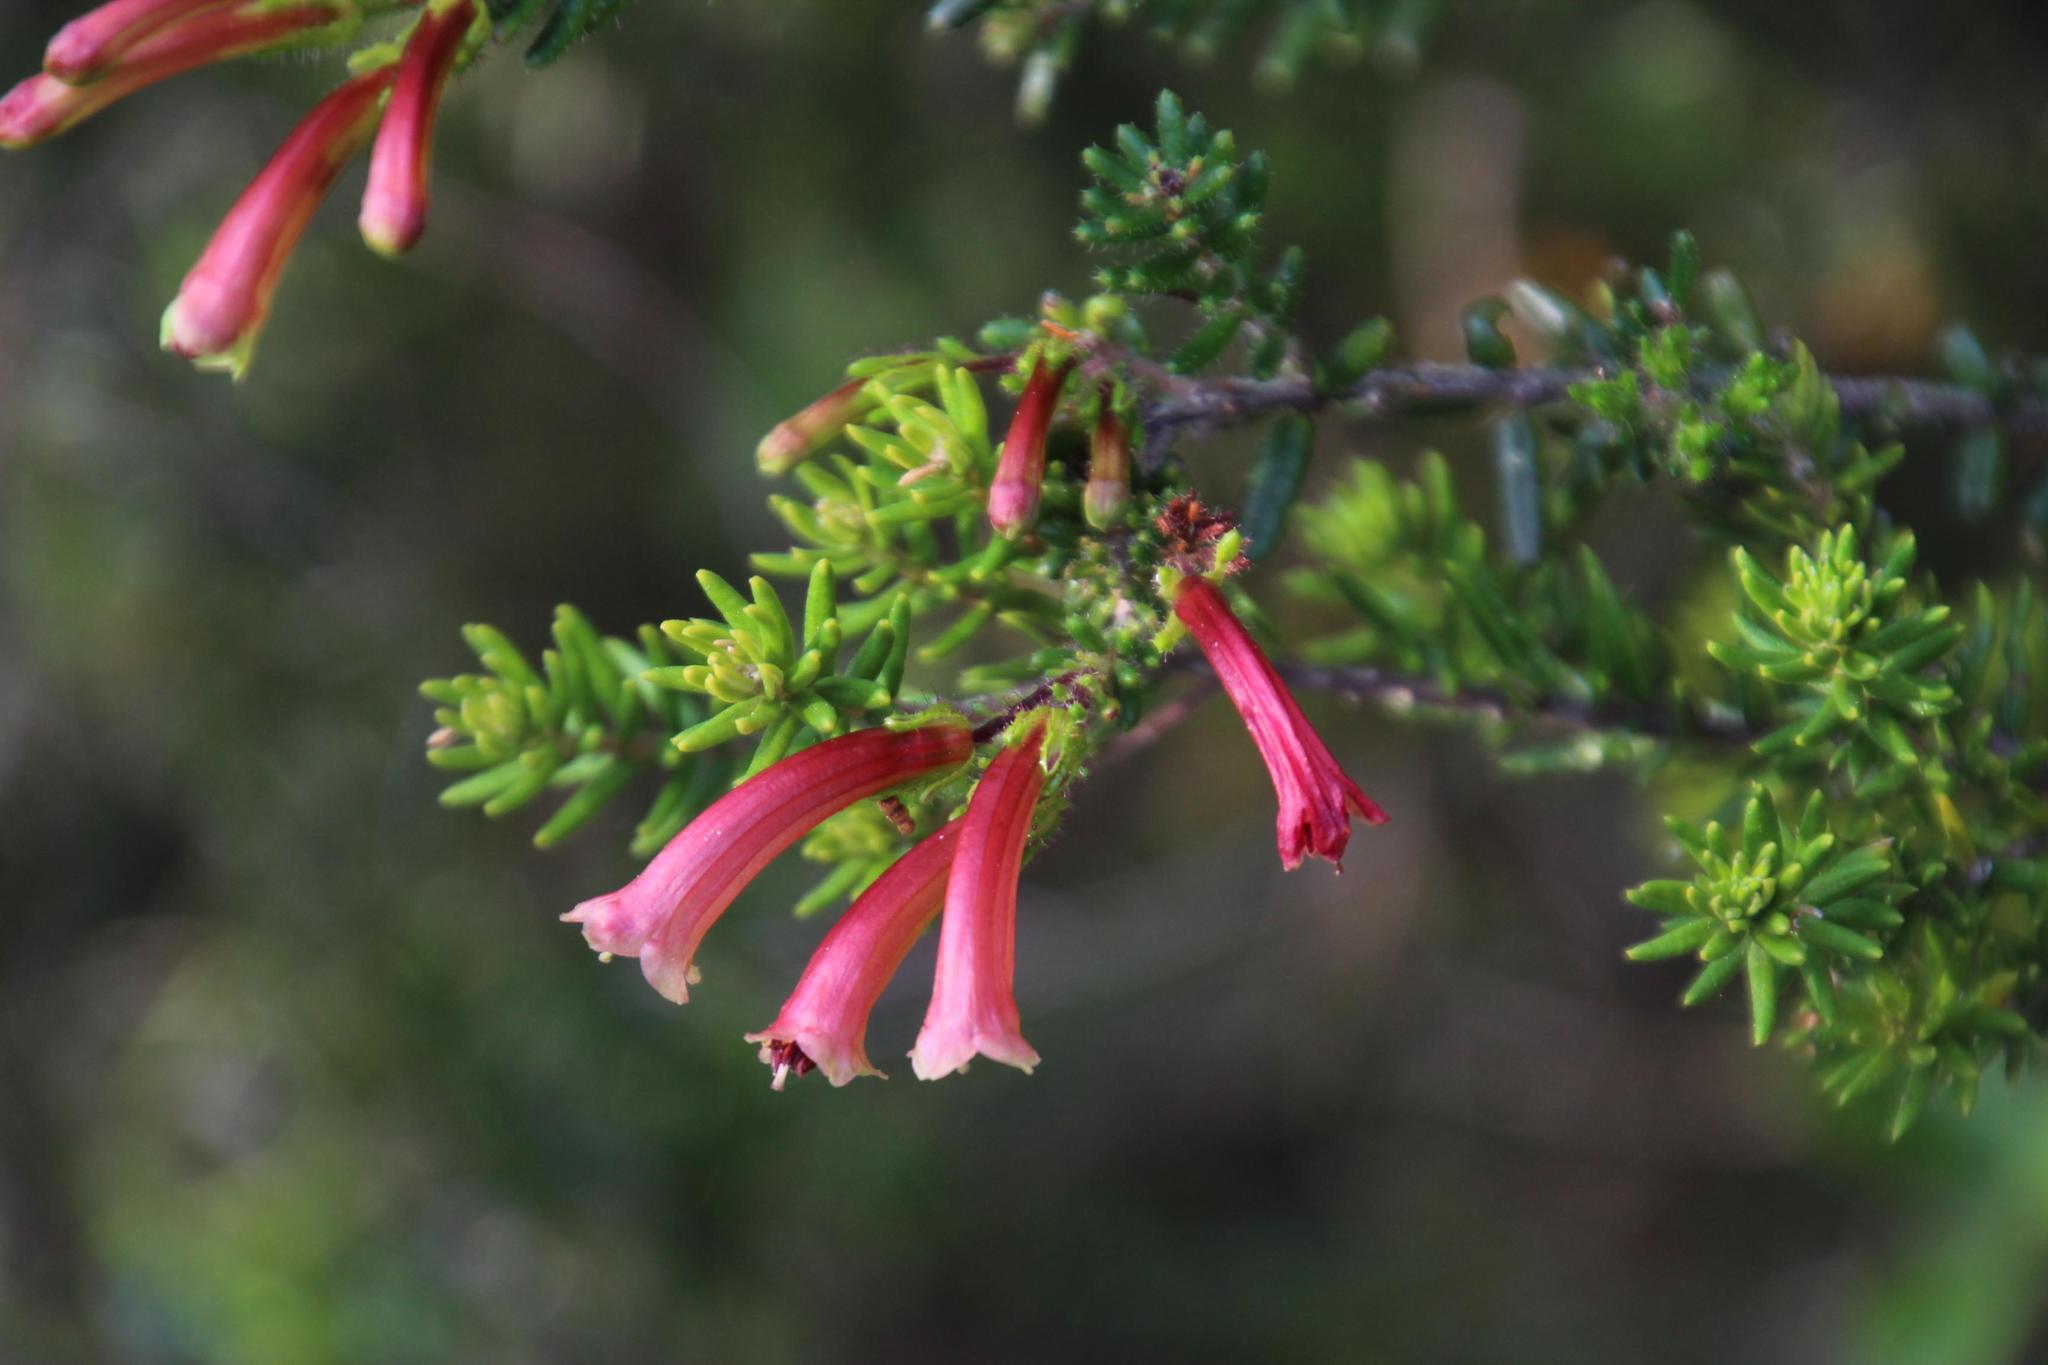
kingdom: Plantae
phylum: Tracheophyta
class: Magnoliopsida
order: Ericales
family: Ericaceae
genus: Erica
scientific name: Erica discolor
